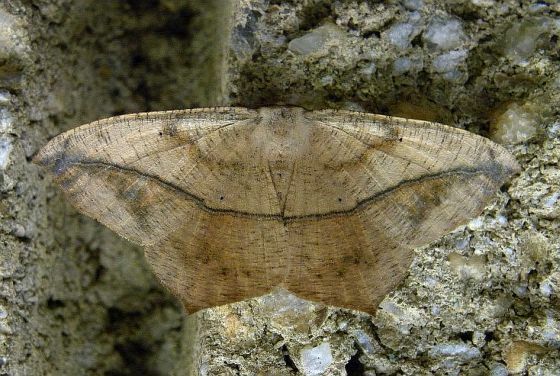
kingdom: Animalia
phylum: Arthropoda
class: Insecta
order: Lepidoptera
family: Geometridae
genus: Prochoerodes
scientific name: Prochoerodes lineola
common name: Large maple spanworm
